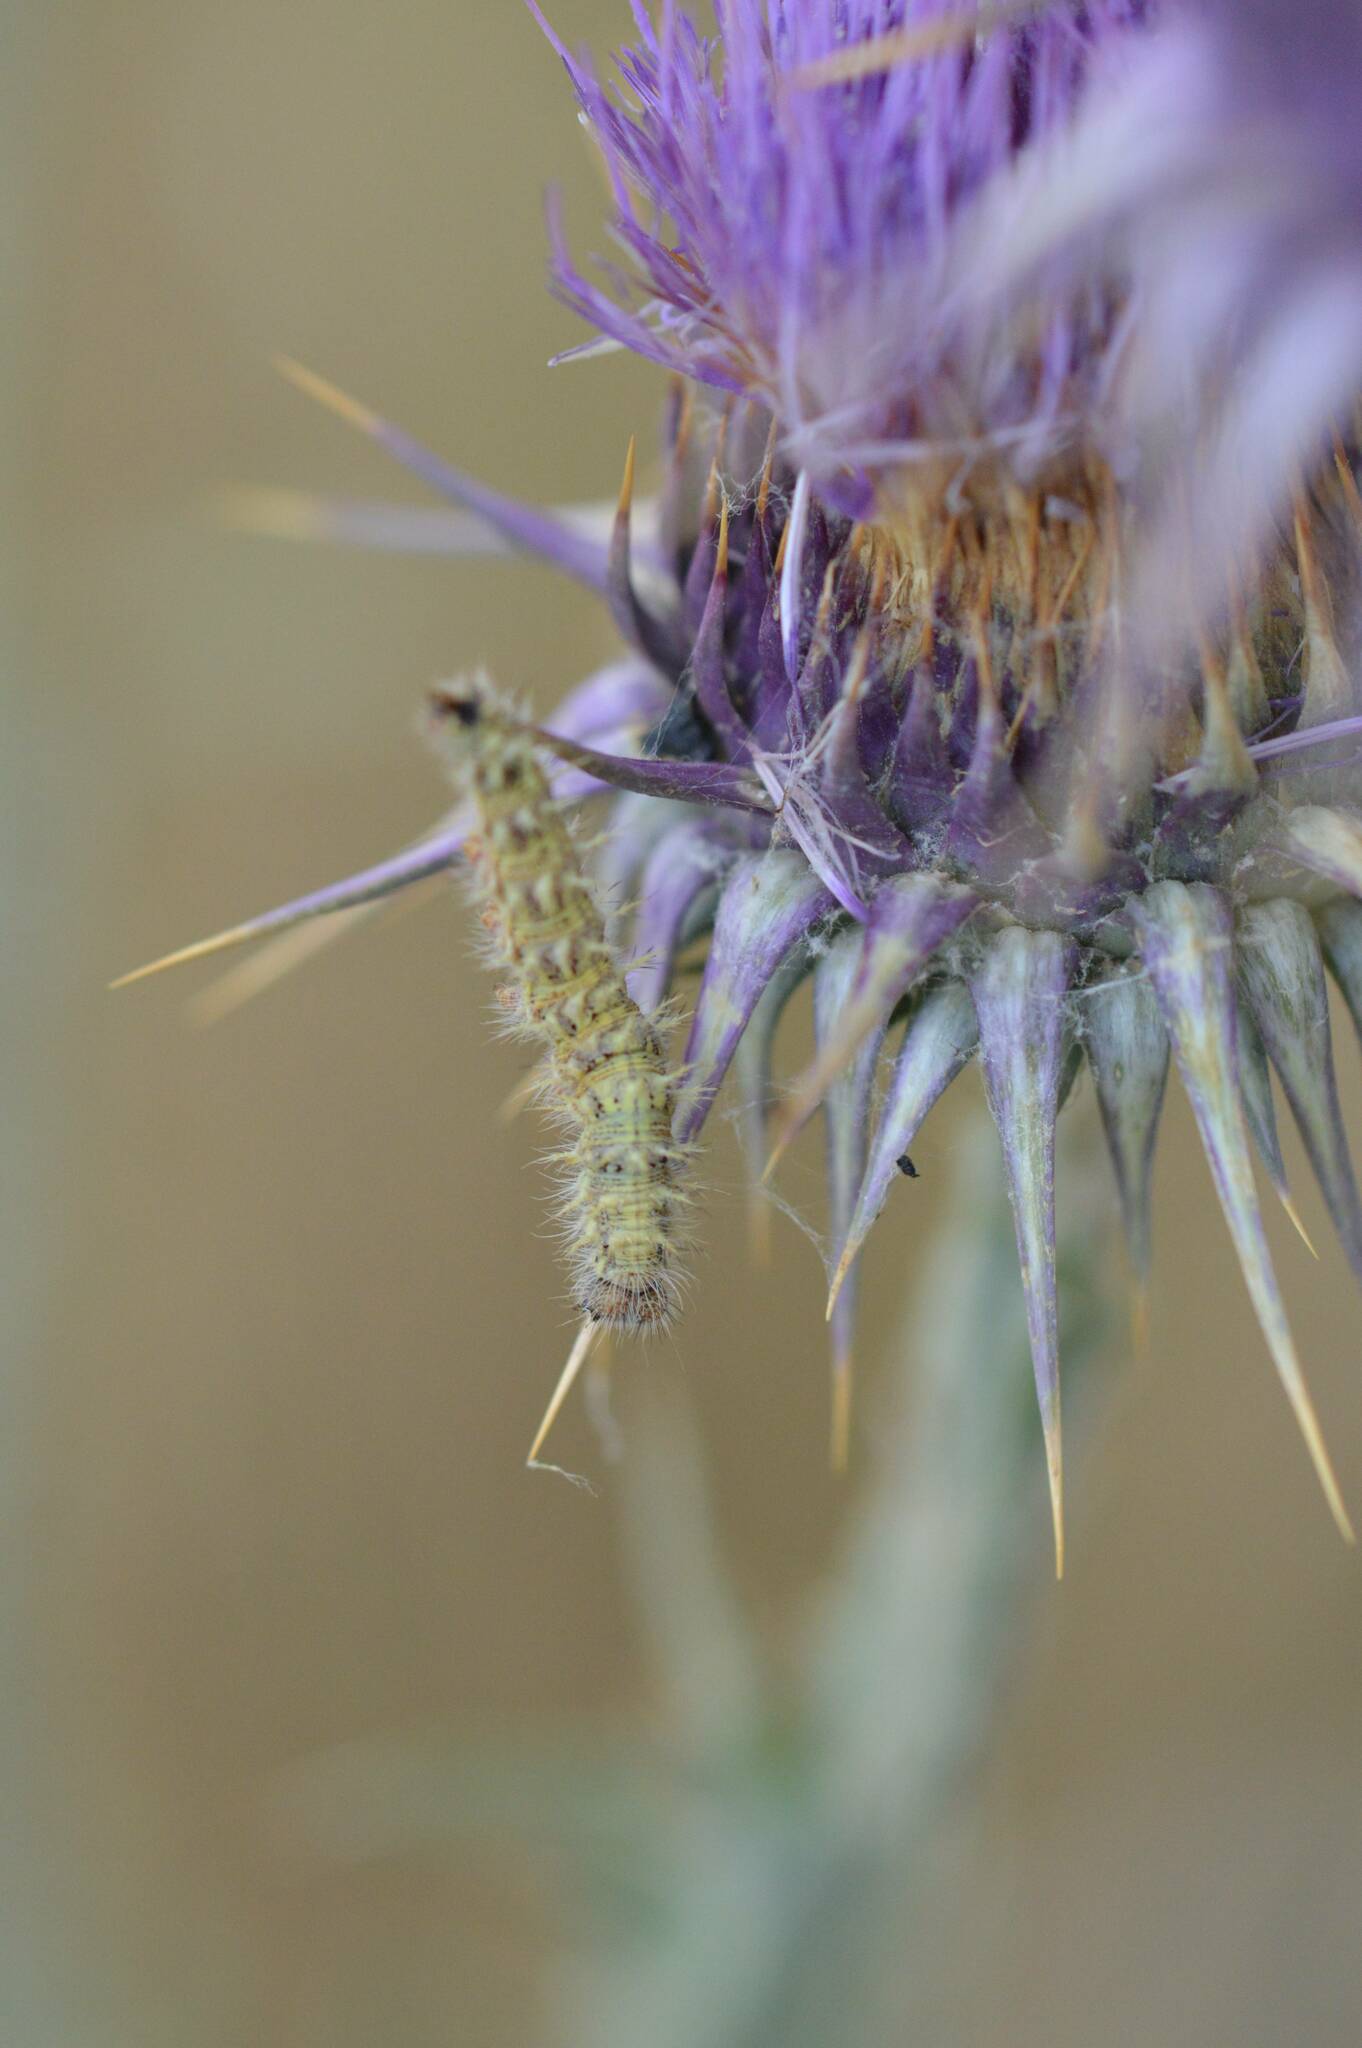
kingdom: Animalia
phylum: Arthropoda
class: Insecta
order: Lepidoptera
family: Nymphalidae
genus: Vanessa
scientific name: Vanessa cardui
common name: Painted lady
